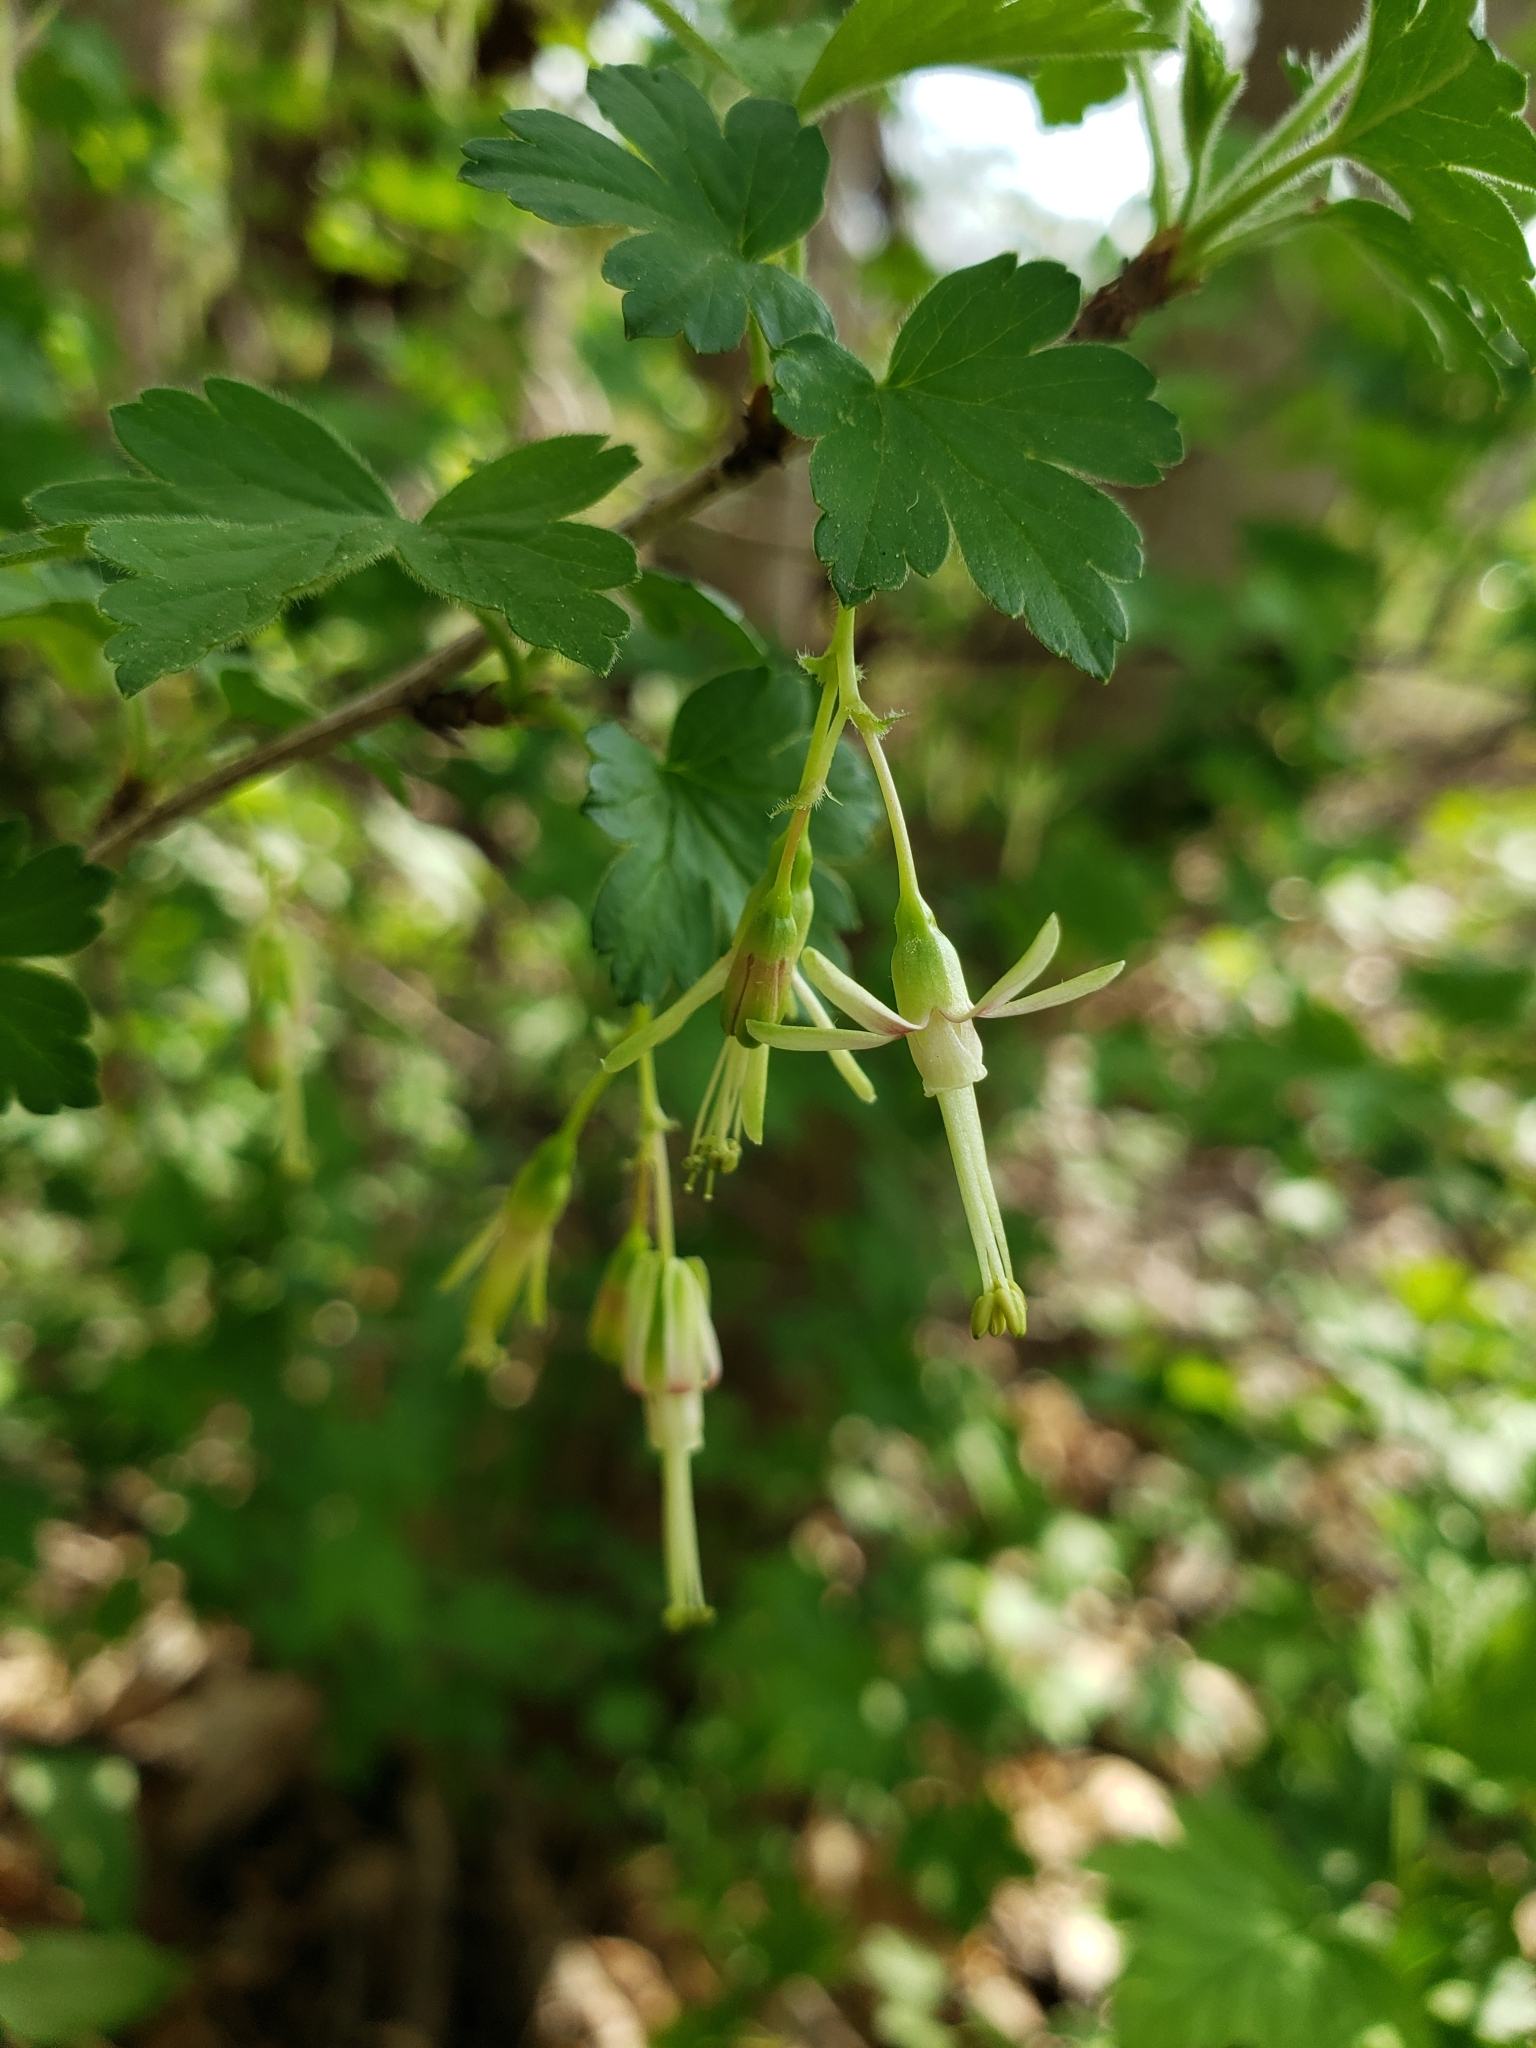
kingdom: Plantae
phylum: Tracheophyta
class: Magnoliopsida
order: Saxifragales
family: Grossulariaceae
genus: Ribes
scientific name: Ribes missouriense
